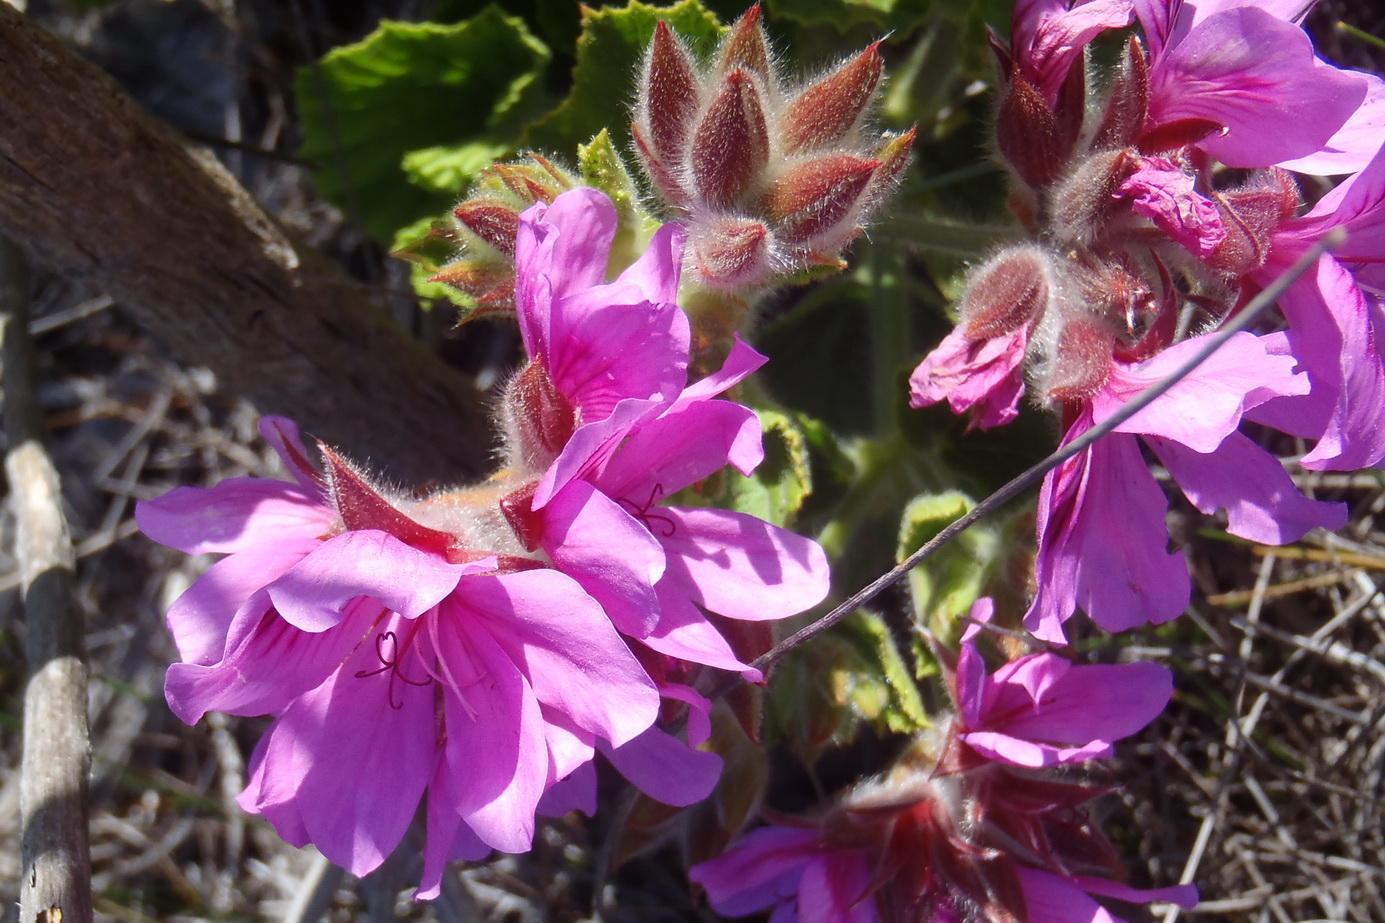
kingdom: Plantae
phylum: Tracheophyta
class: Magnoliopsida
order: Geraniales
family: Geraniaceae
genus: Pelargonium
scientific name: Pelargonium cucullatum
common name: Tree pelargonium
